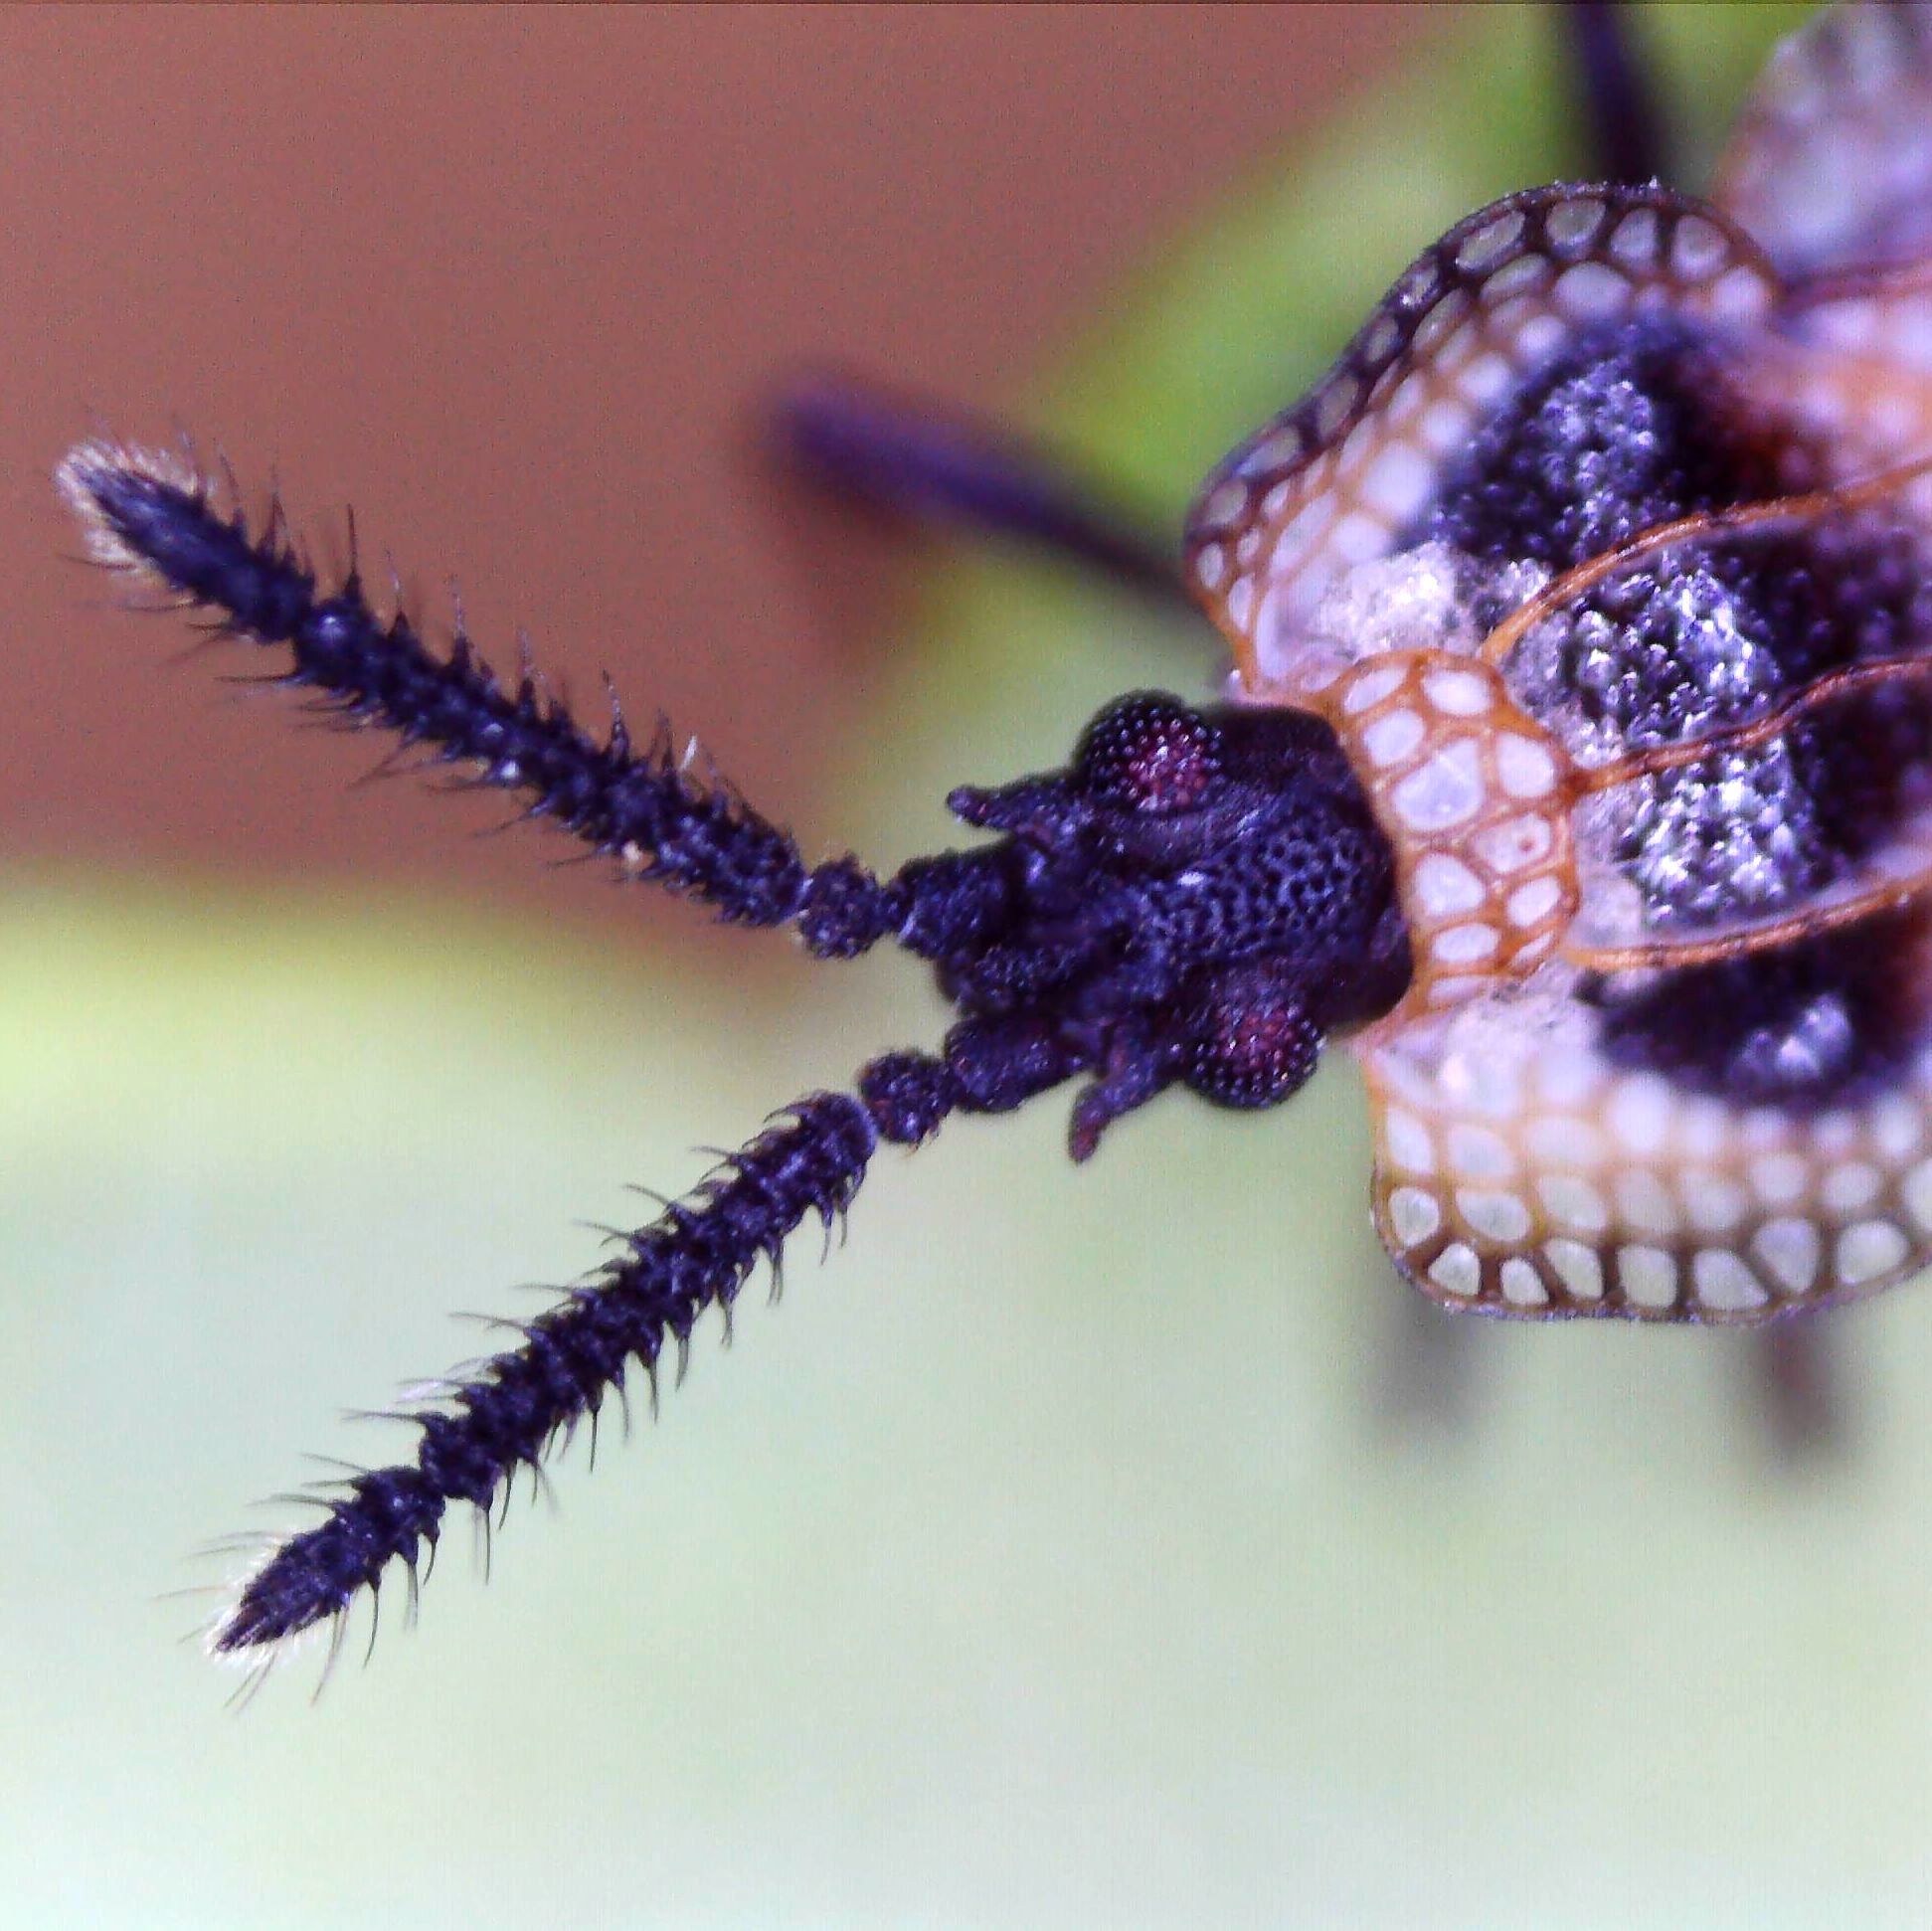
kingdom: Animalia
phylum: Arthropoda
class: Insecta
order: Hemiptera
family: Tingidae
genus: Dictyonota
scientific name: Dictyonota tricornis
